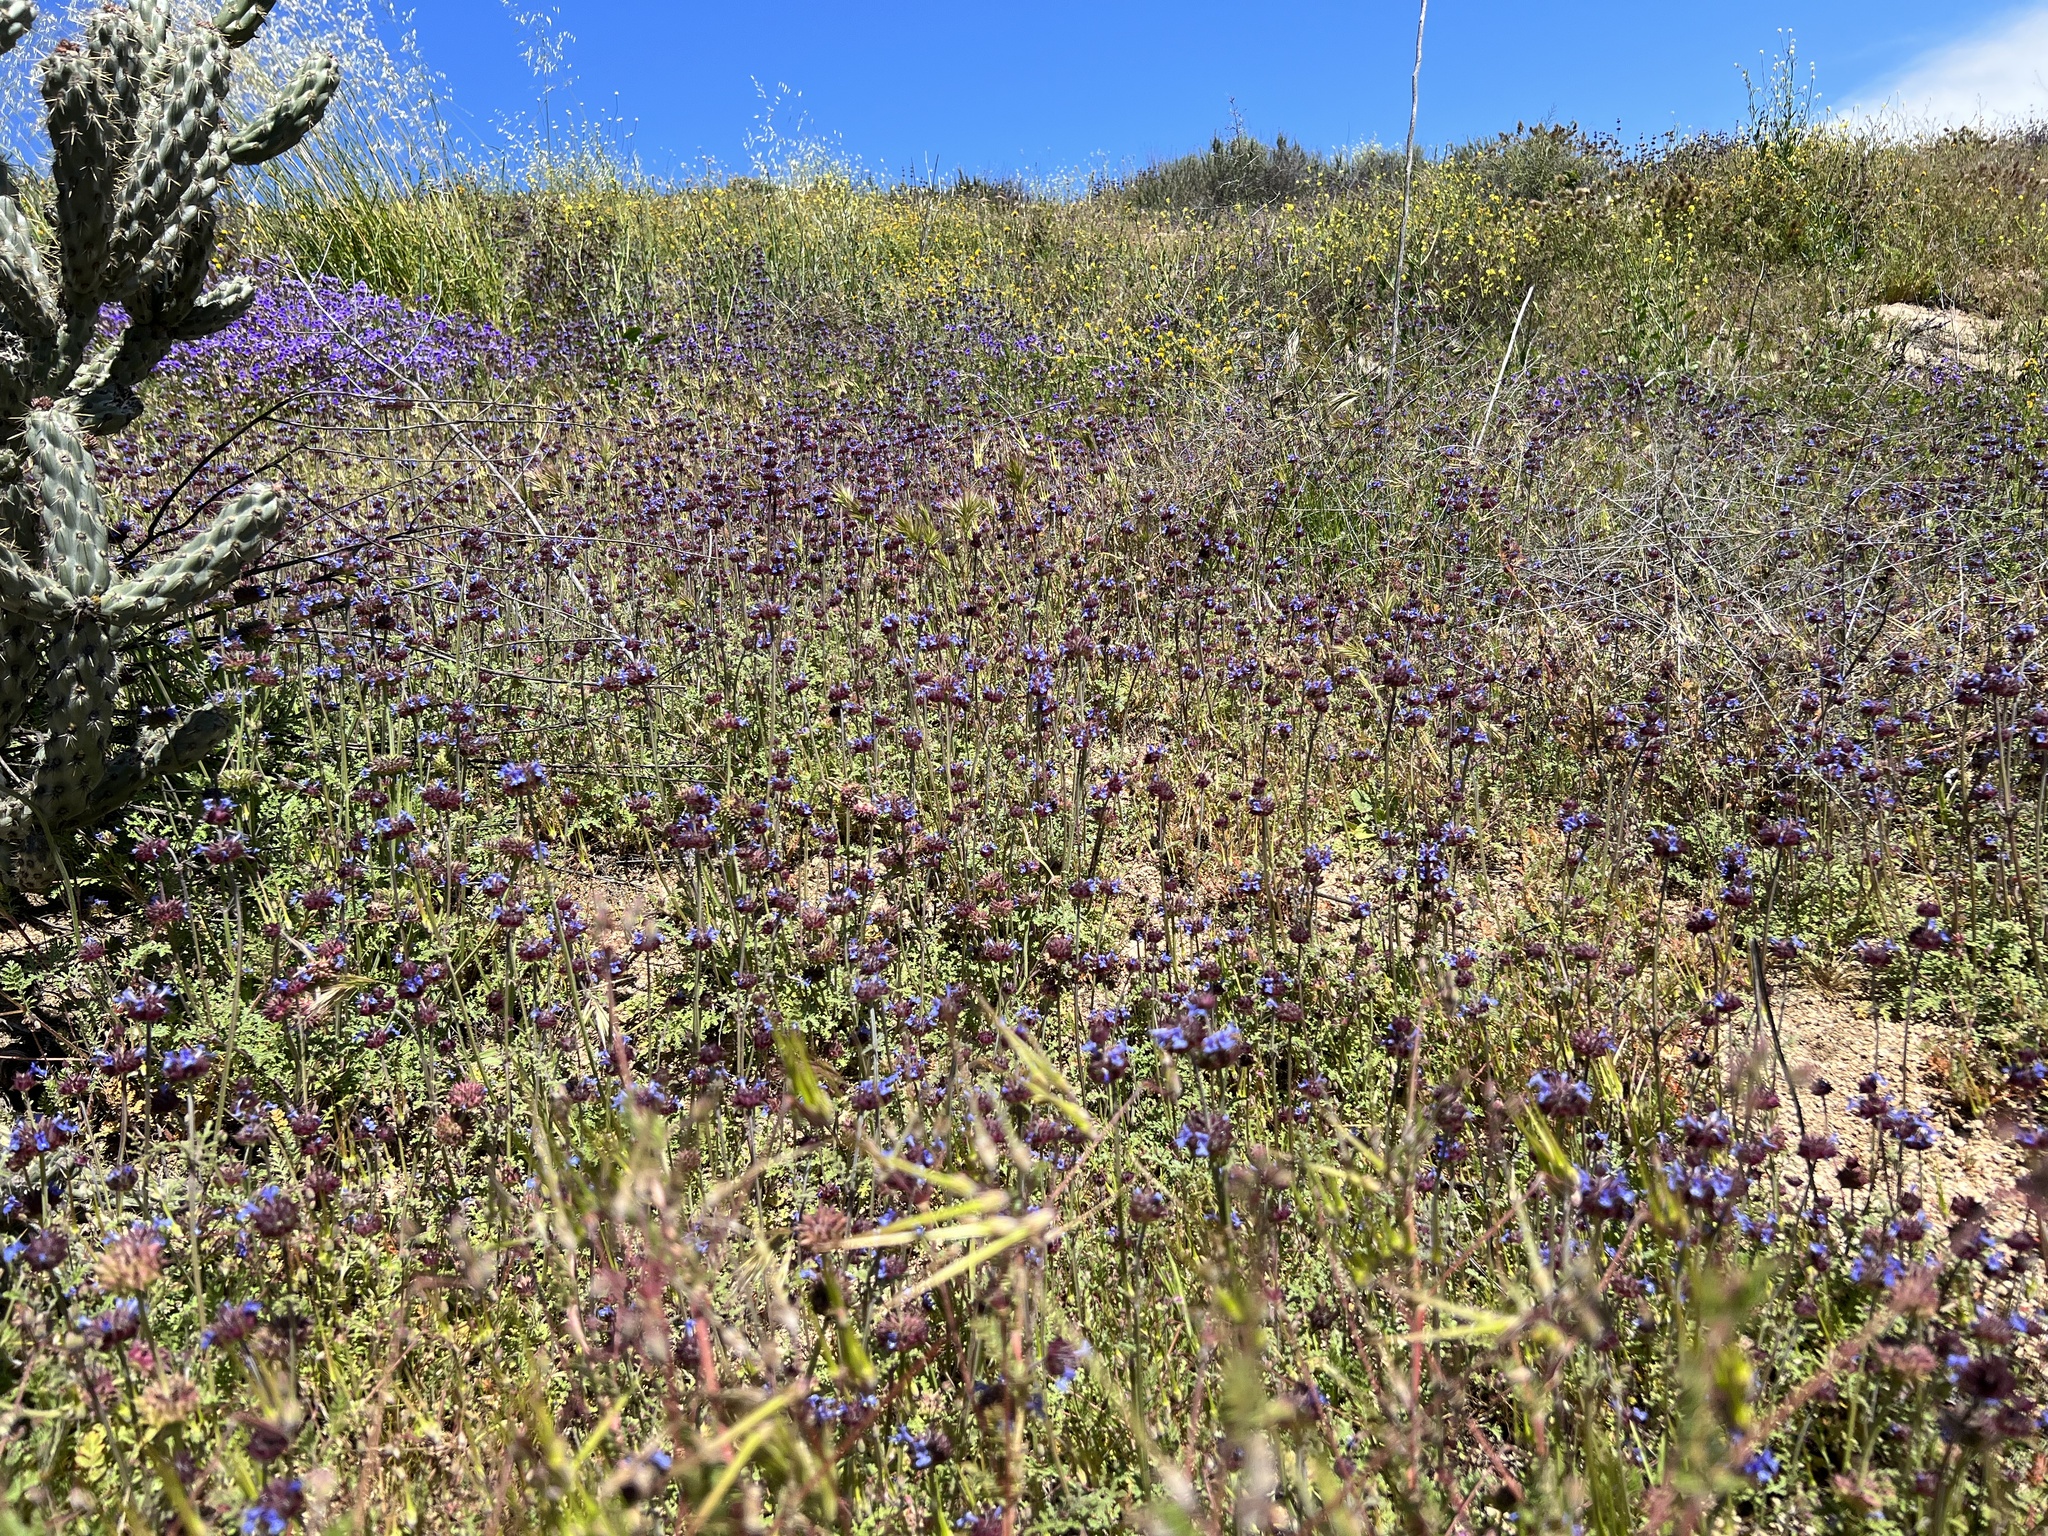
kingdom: Plantae
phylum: Tracheophyta
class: Magnoliopsida
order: Lamiales
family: Lamiaceae
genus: Salvia
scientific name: Salvia columbariae
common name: Chia
